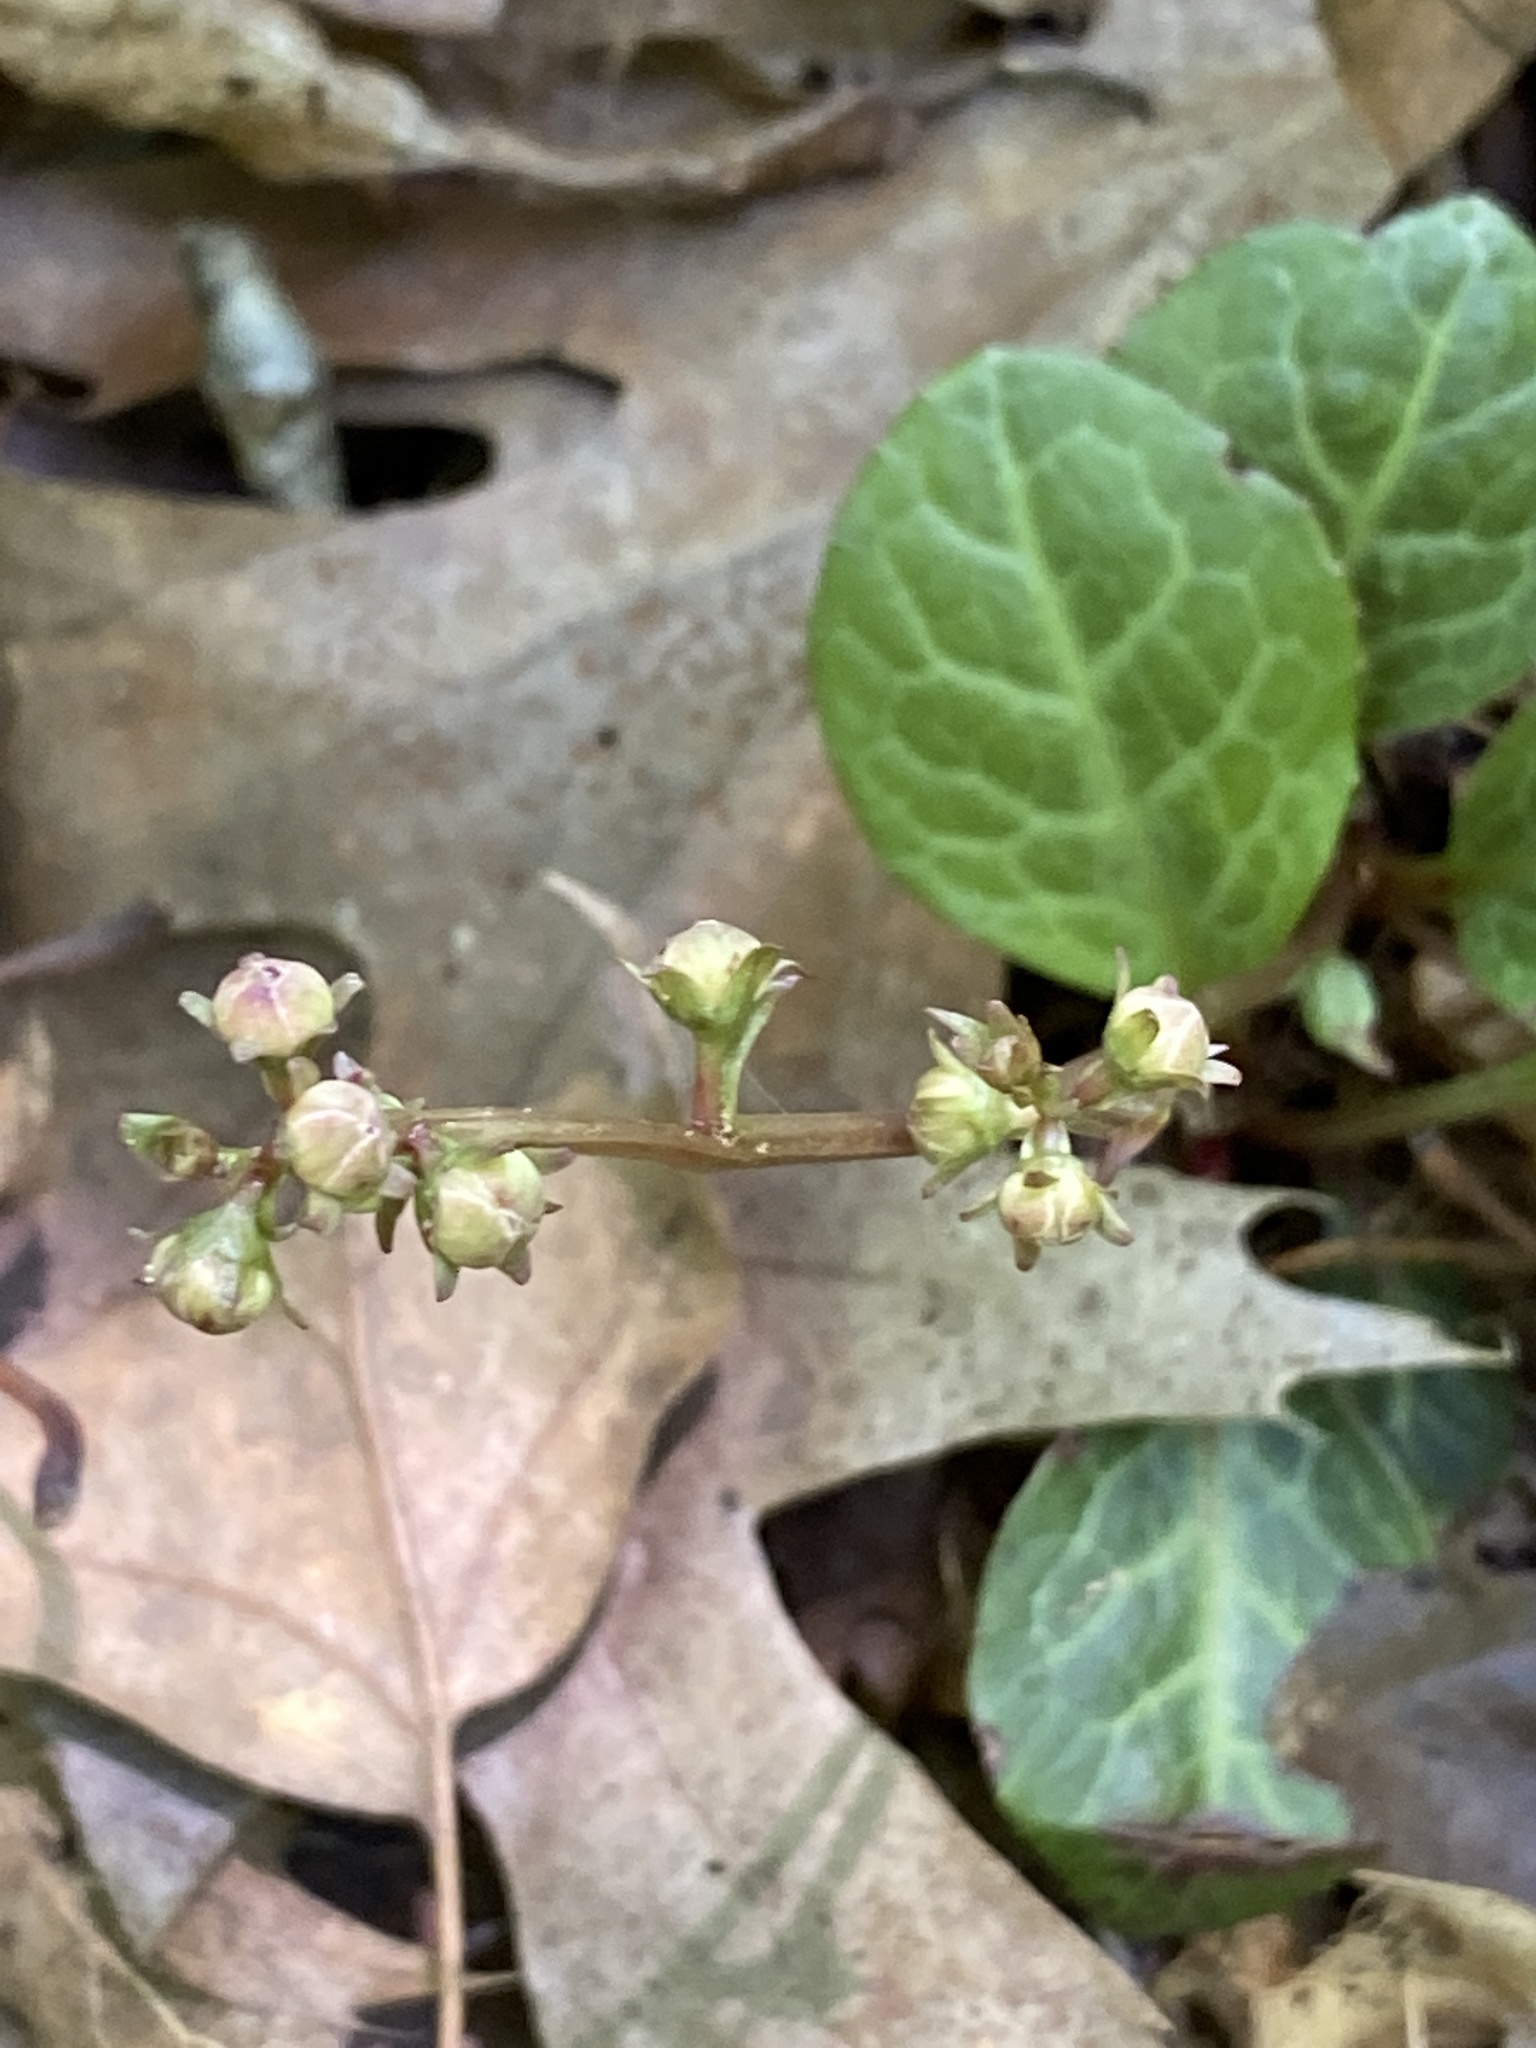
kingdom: Plantae
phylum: Tracheophyta
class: Magnoliopsida
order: Ericales
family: Ericaceae
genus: Pyrola
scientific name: Pyrola americana
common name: American wintergreen
